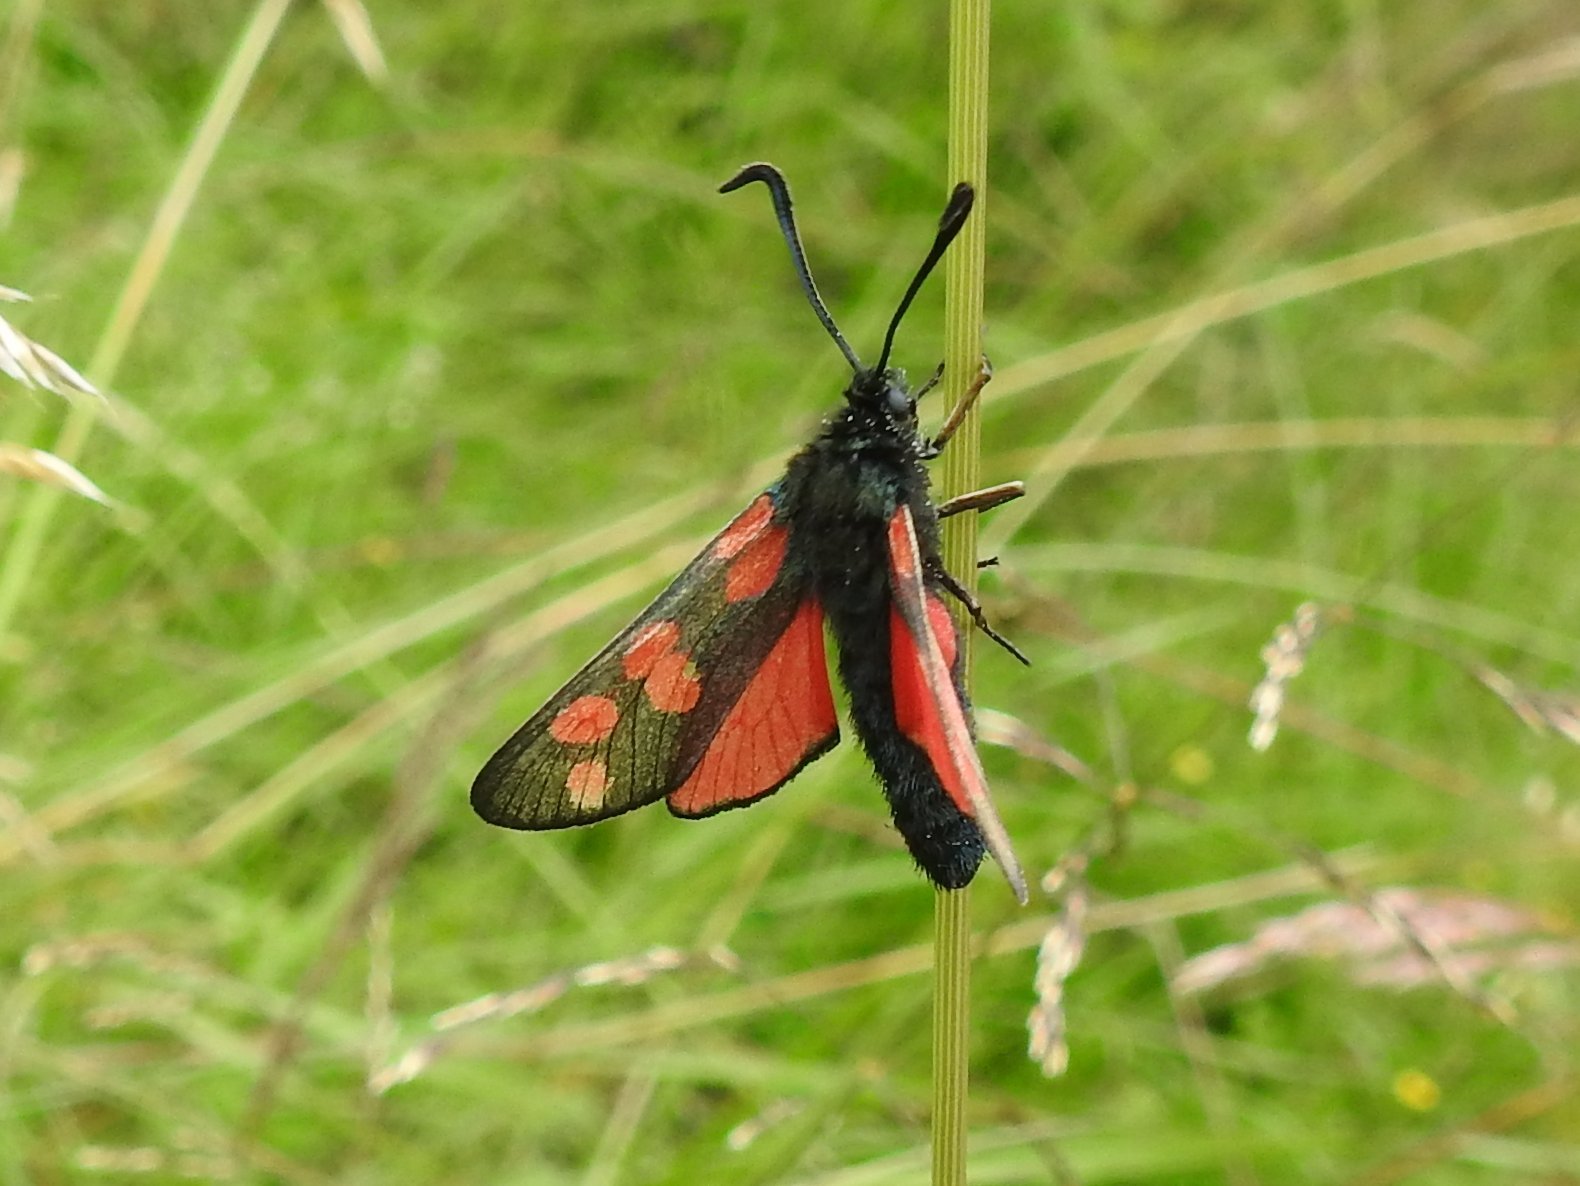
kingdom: Animalia
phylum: Arthropoda
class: Insecta
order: Lepidoptera
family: Zygaenidae
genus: Zygaena
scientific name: Zygaena filipendulae
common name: Six-spot burnet
